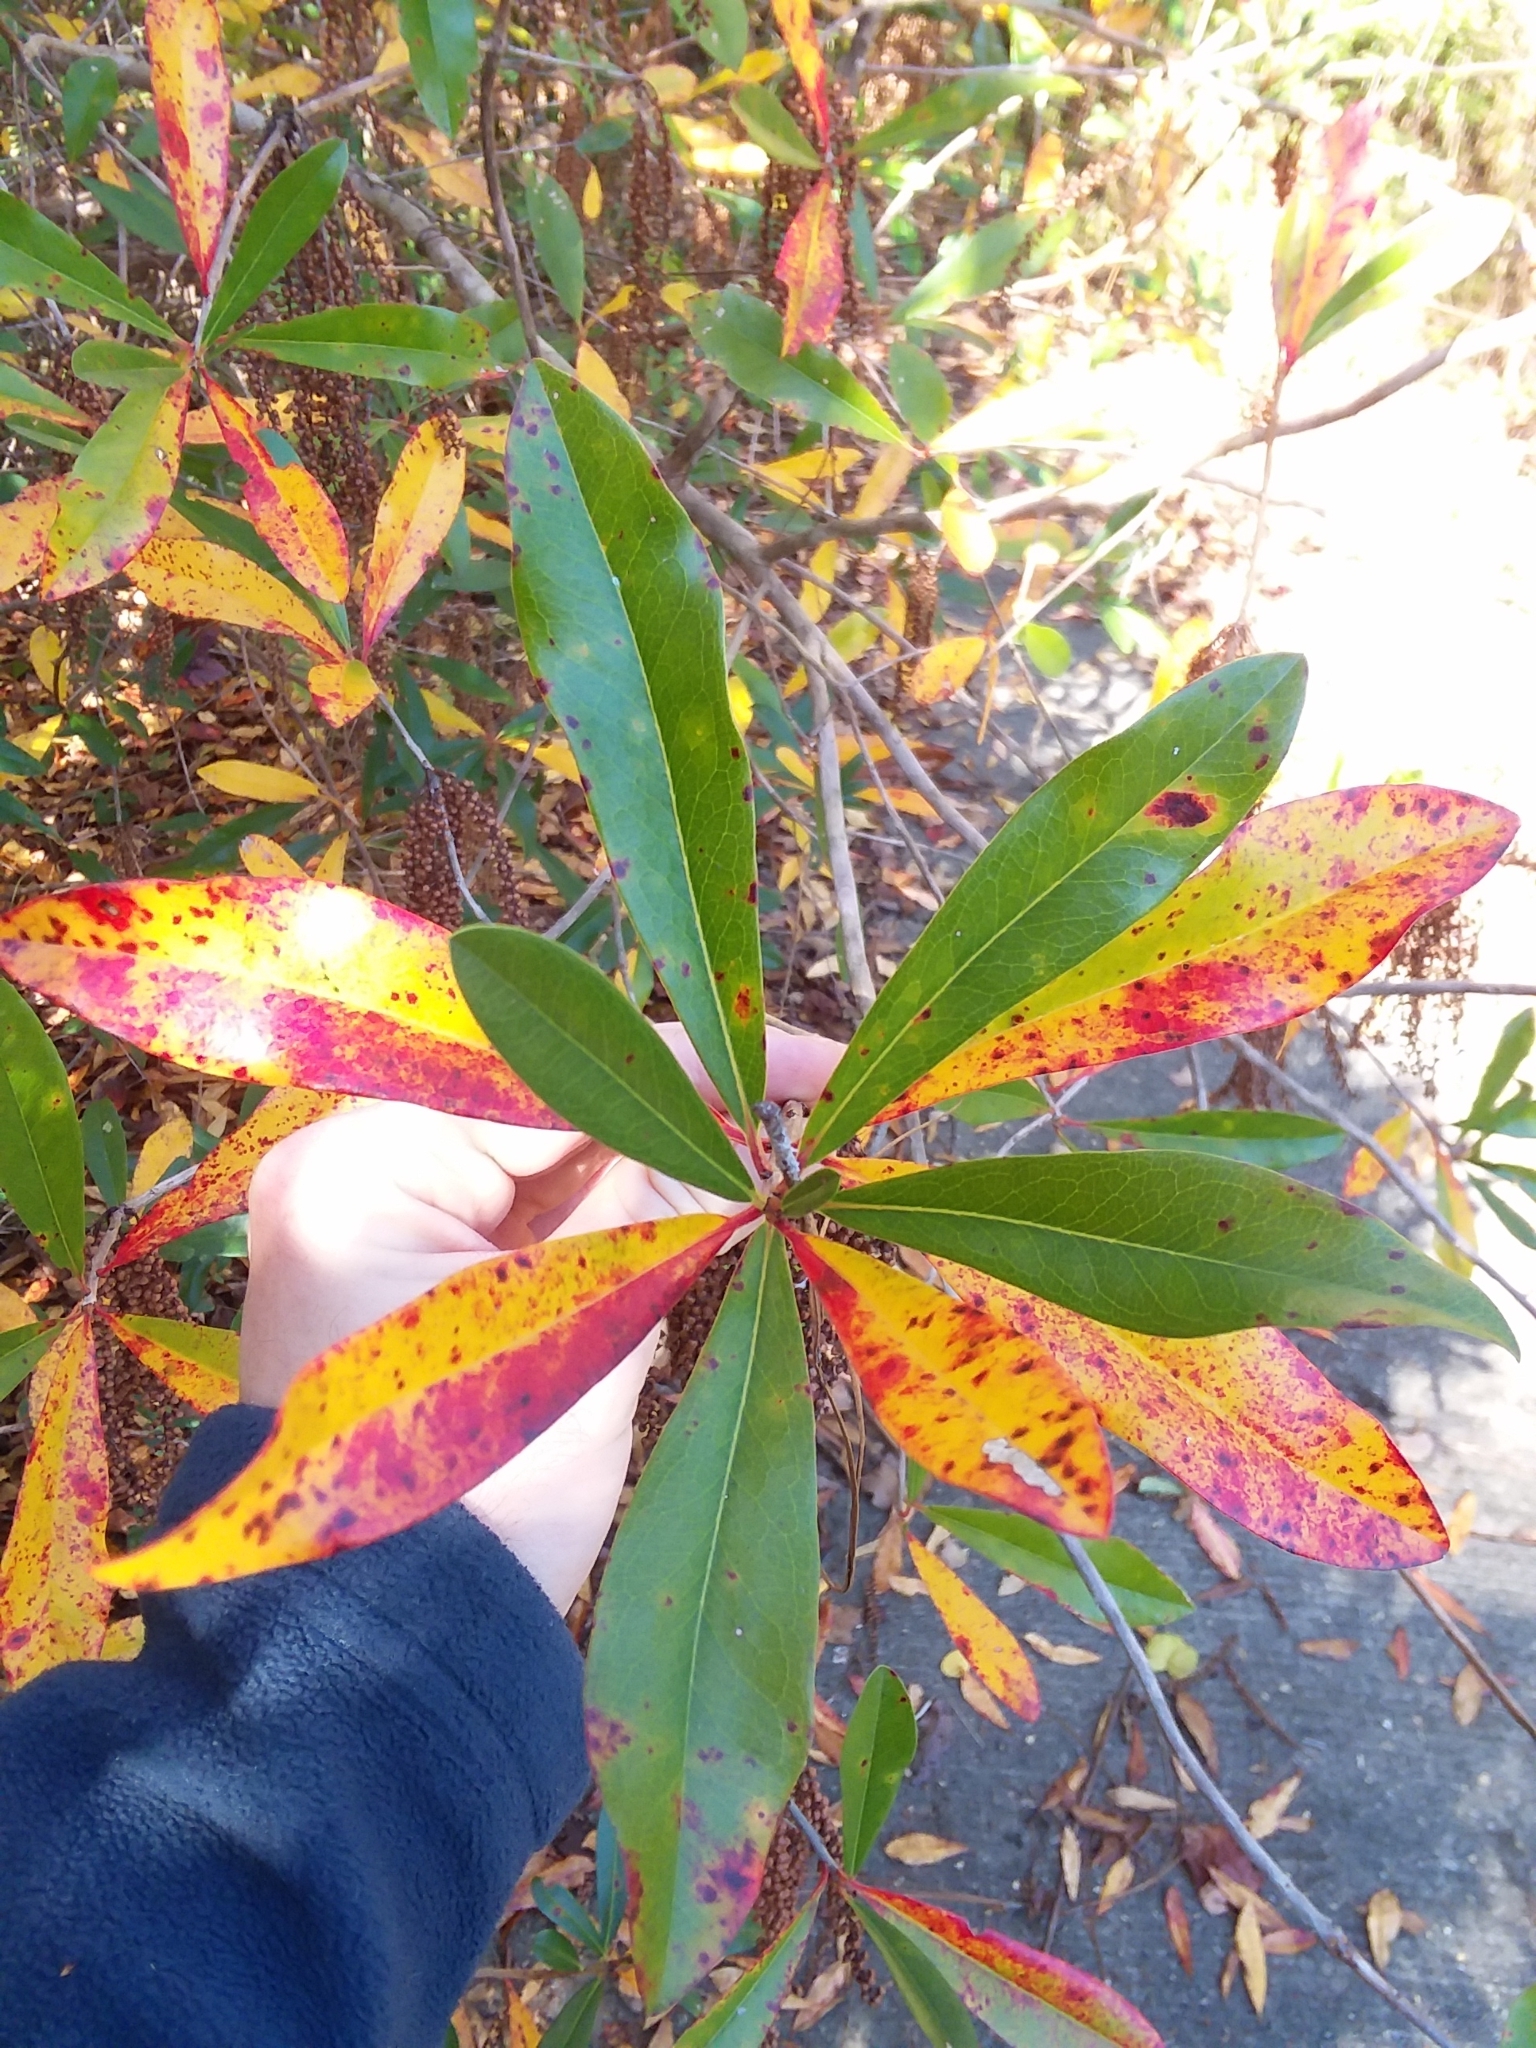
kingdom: Plantae
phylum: Tracheophyta
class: Magnoliopsida
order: Ericales
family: Cyrillaceae
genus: Cyrilla
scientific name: Cyrilla racemiflora
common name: Black titi
